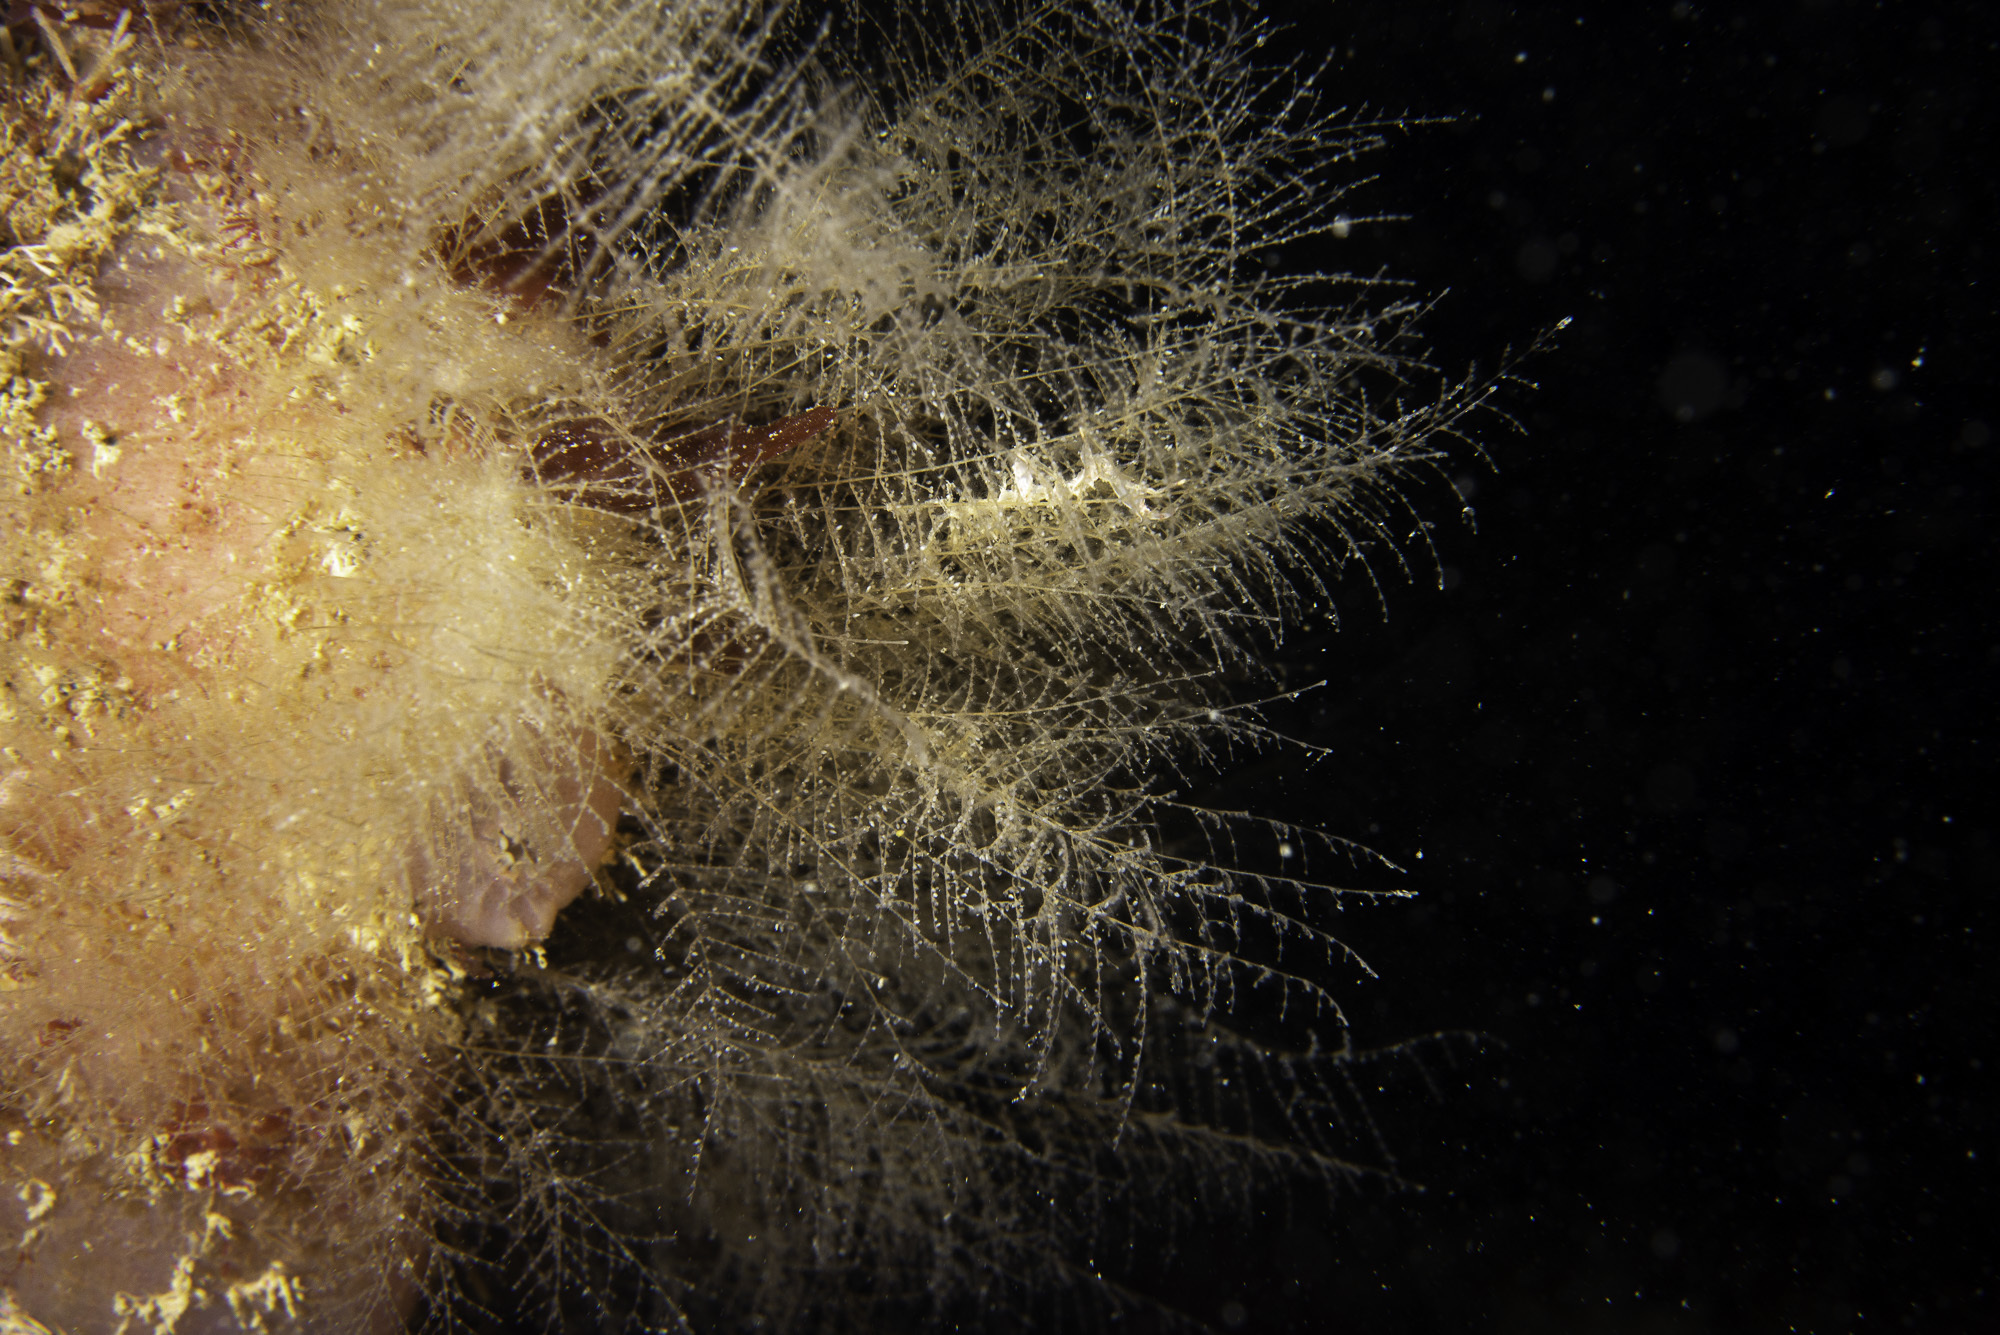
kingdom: Animalia
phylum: Cnidaria
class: Hydrozoa
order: Leptothecata
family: Halopterididae
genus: Halopteris
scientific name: Halopteris catharina
